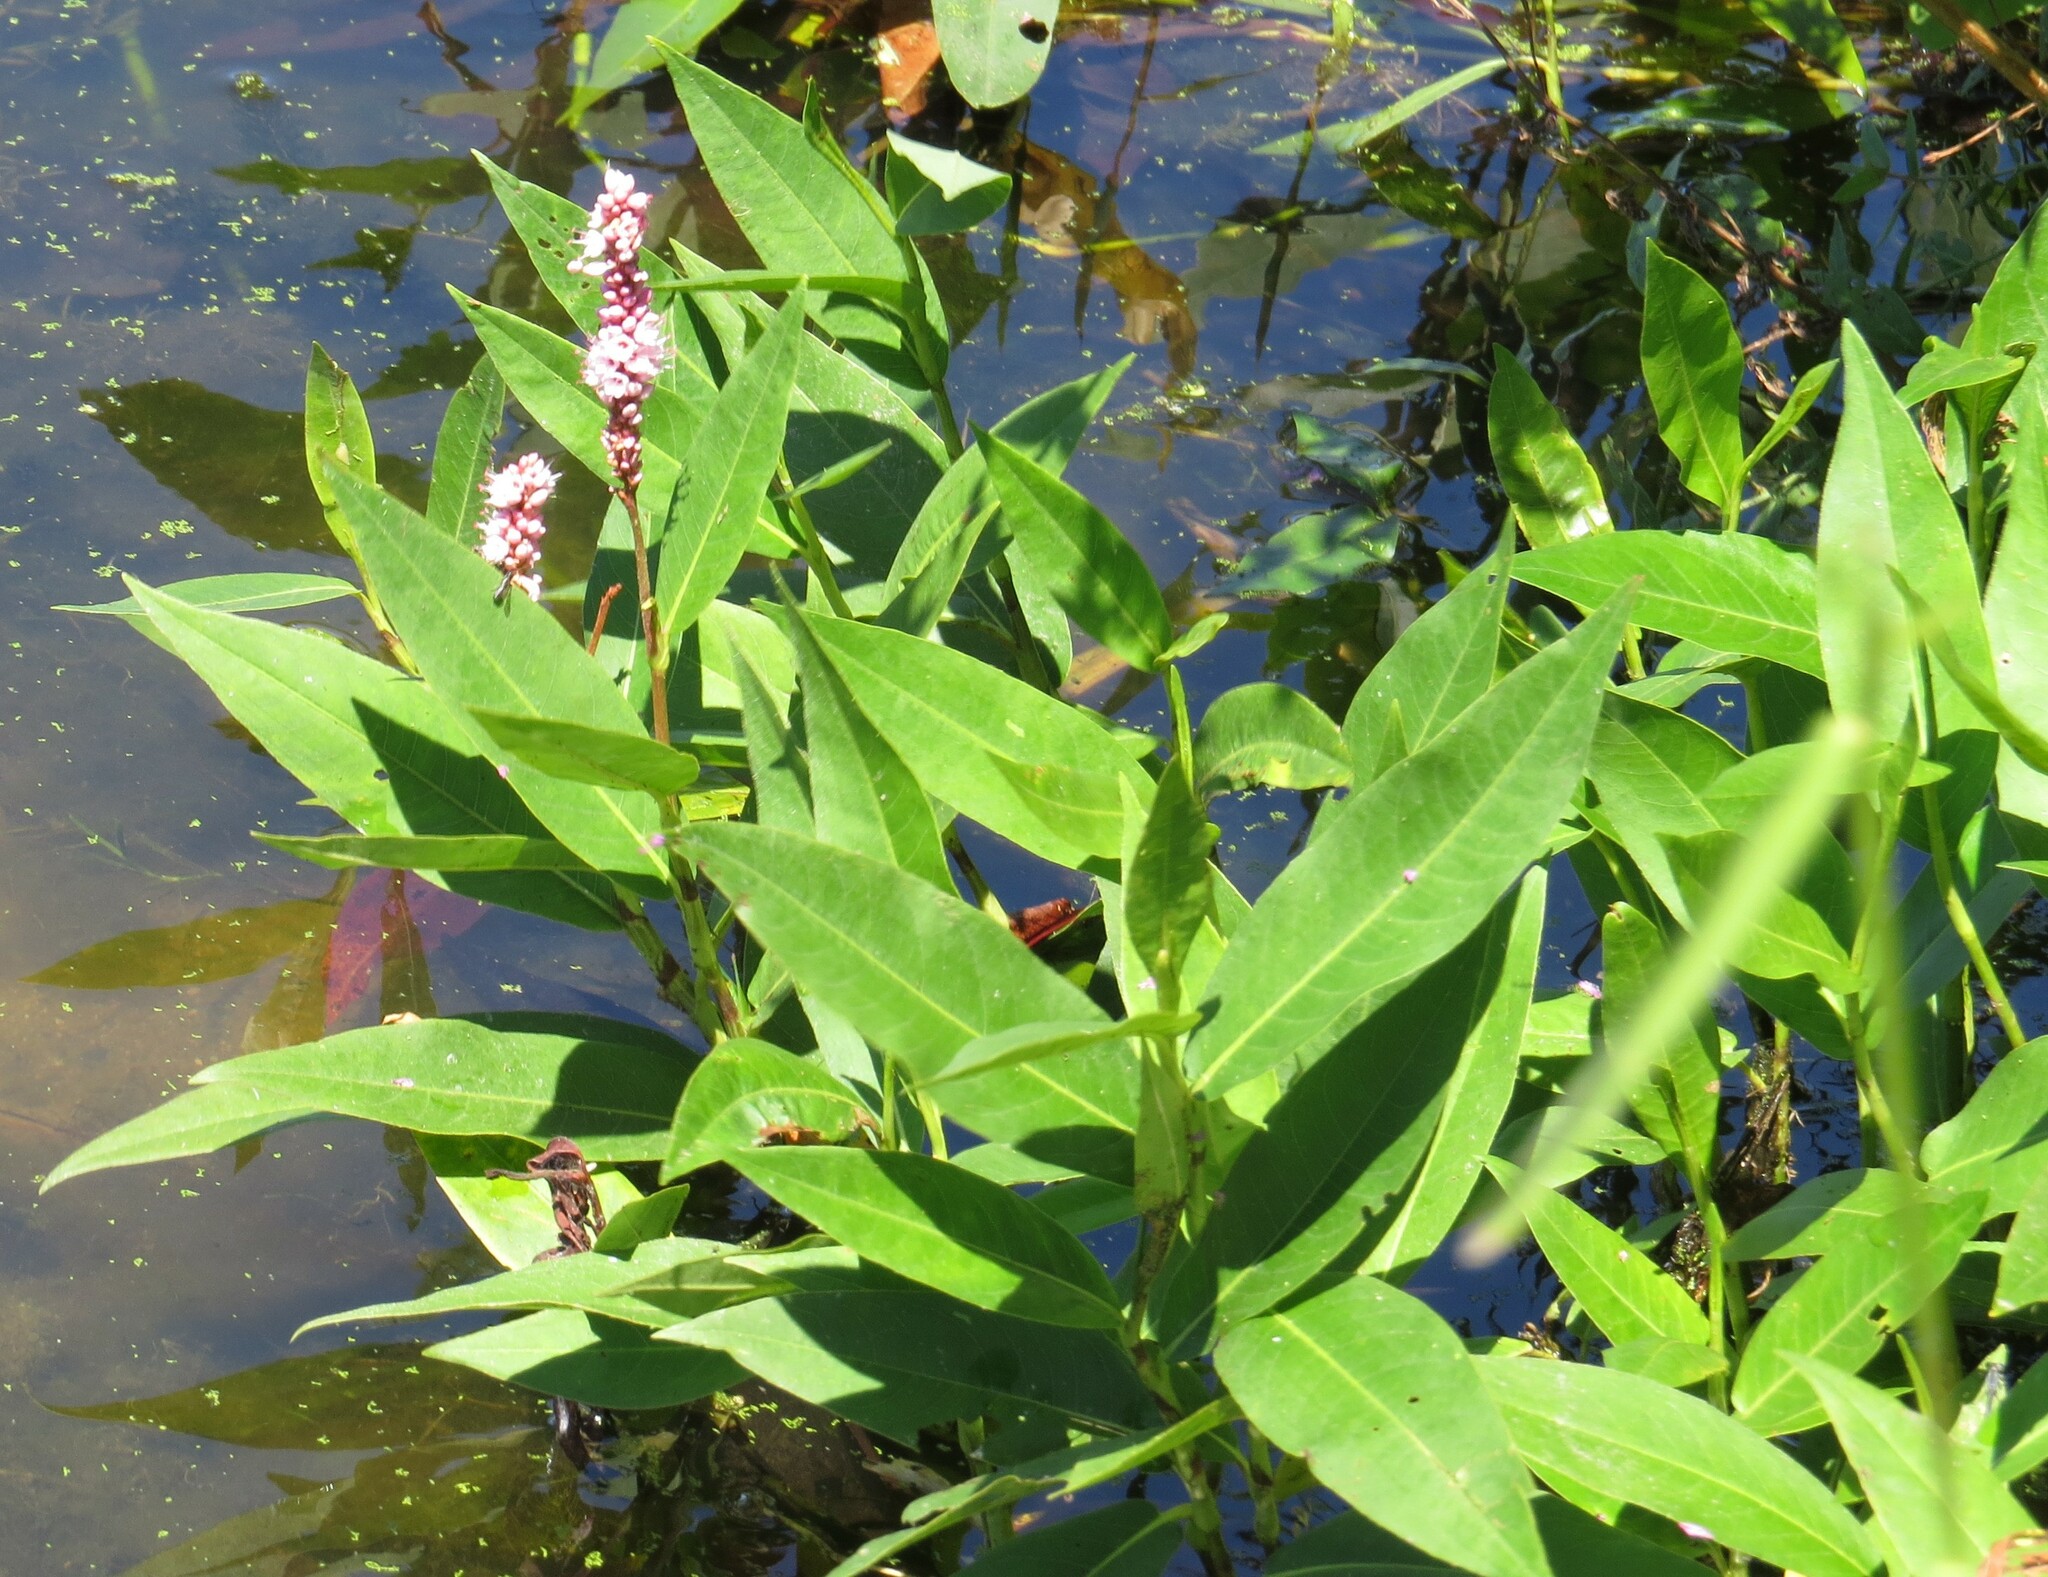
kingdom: Plantae
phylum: Tracheophyta
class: Magnoliopsida
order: Caryophyllales
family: Polygonaceae
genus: Persicaria
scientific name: Persicaria amphibia
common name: Amphibious bistort
